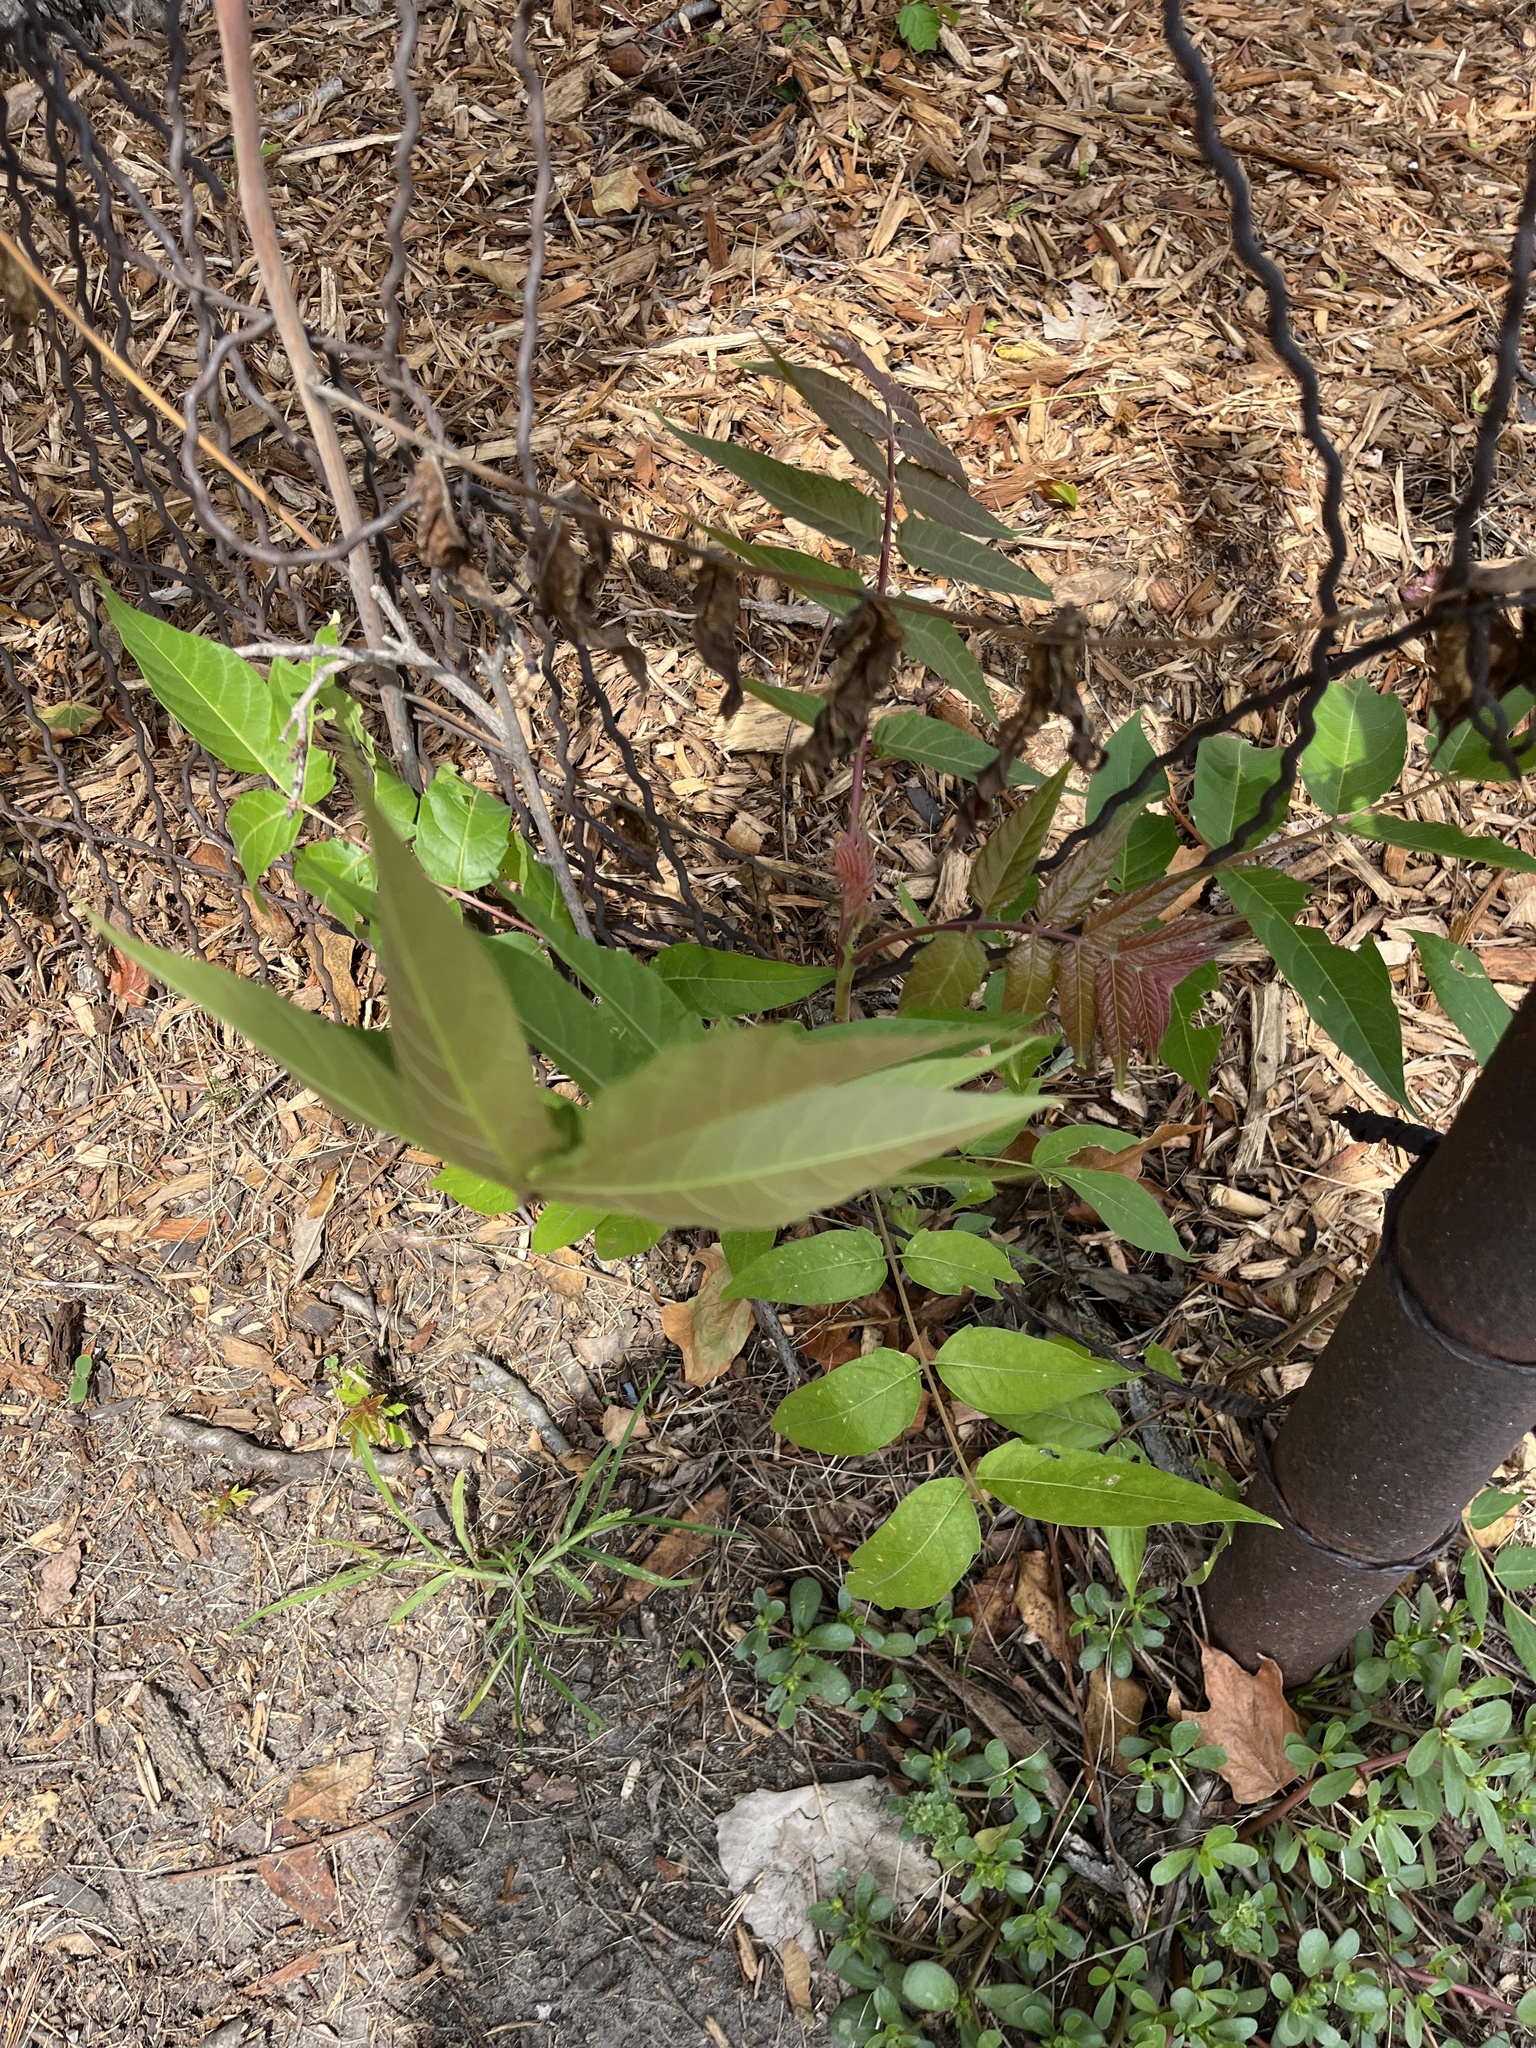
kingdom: Plantae
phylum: Tracheophyta
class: Magnoliopsida
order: Sapindales
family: Simaroubaceae
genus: Ailanthus
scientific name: Ailanthus altissima
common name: Tree-of-heaven
